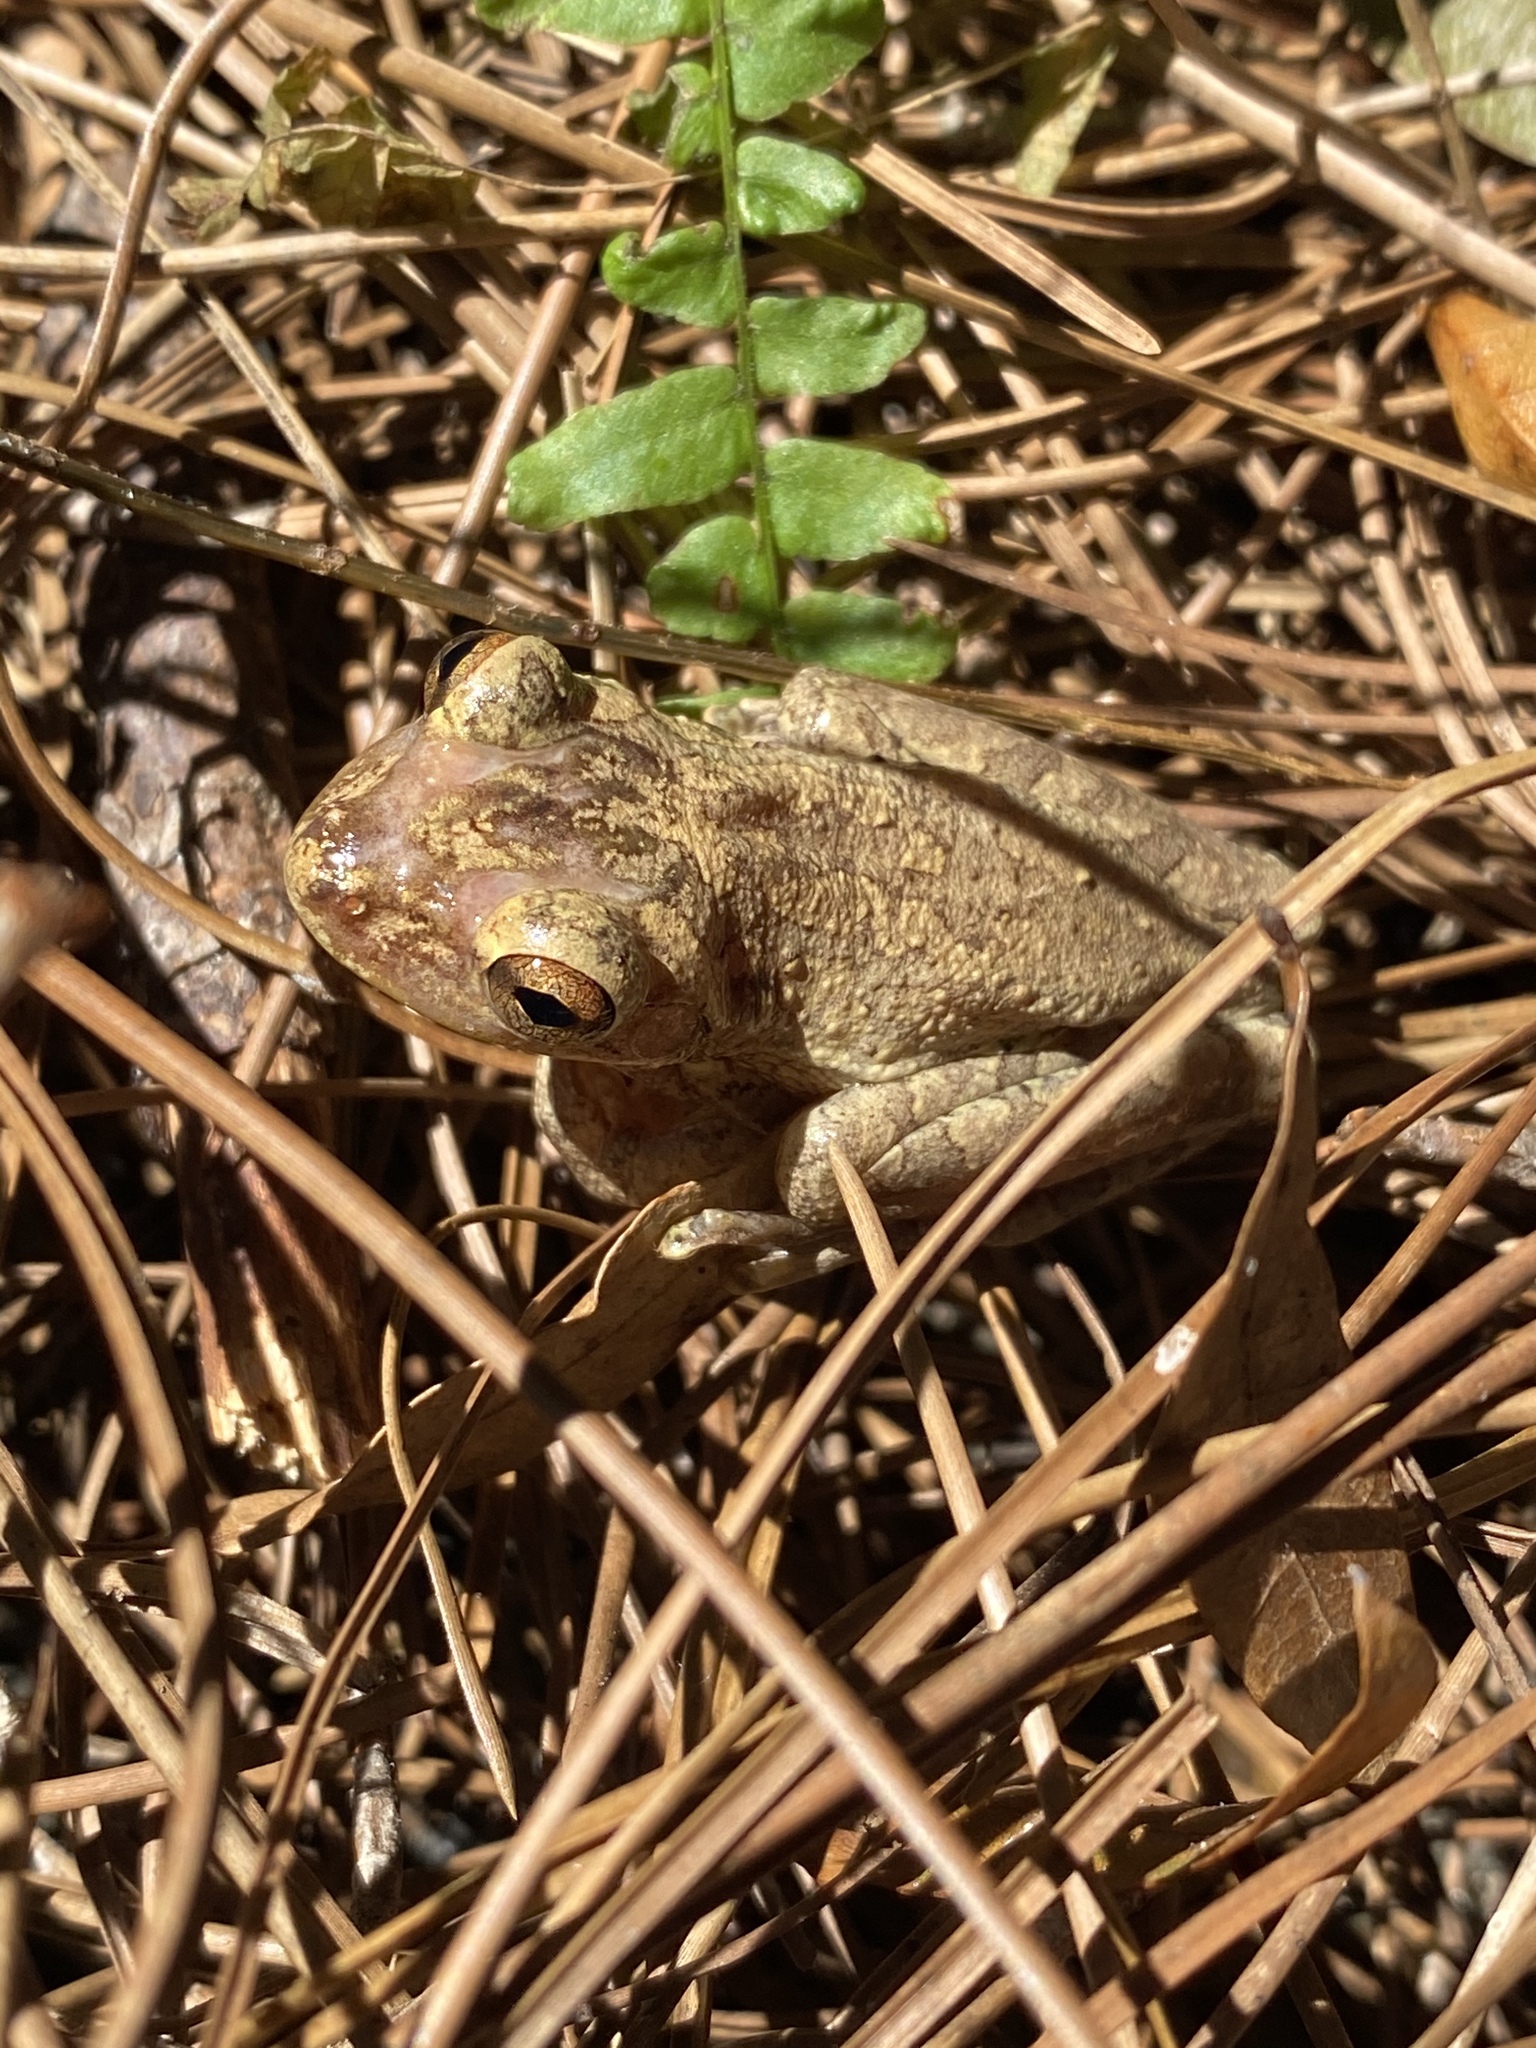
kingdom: Animalia
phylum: Chordata
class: Amphibia
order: Anura
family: Hylidae
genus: Osteopilus
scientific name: Osteopilus septentrionalis
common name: Cuban treefrog
